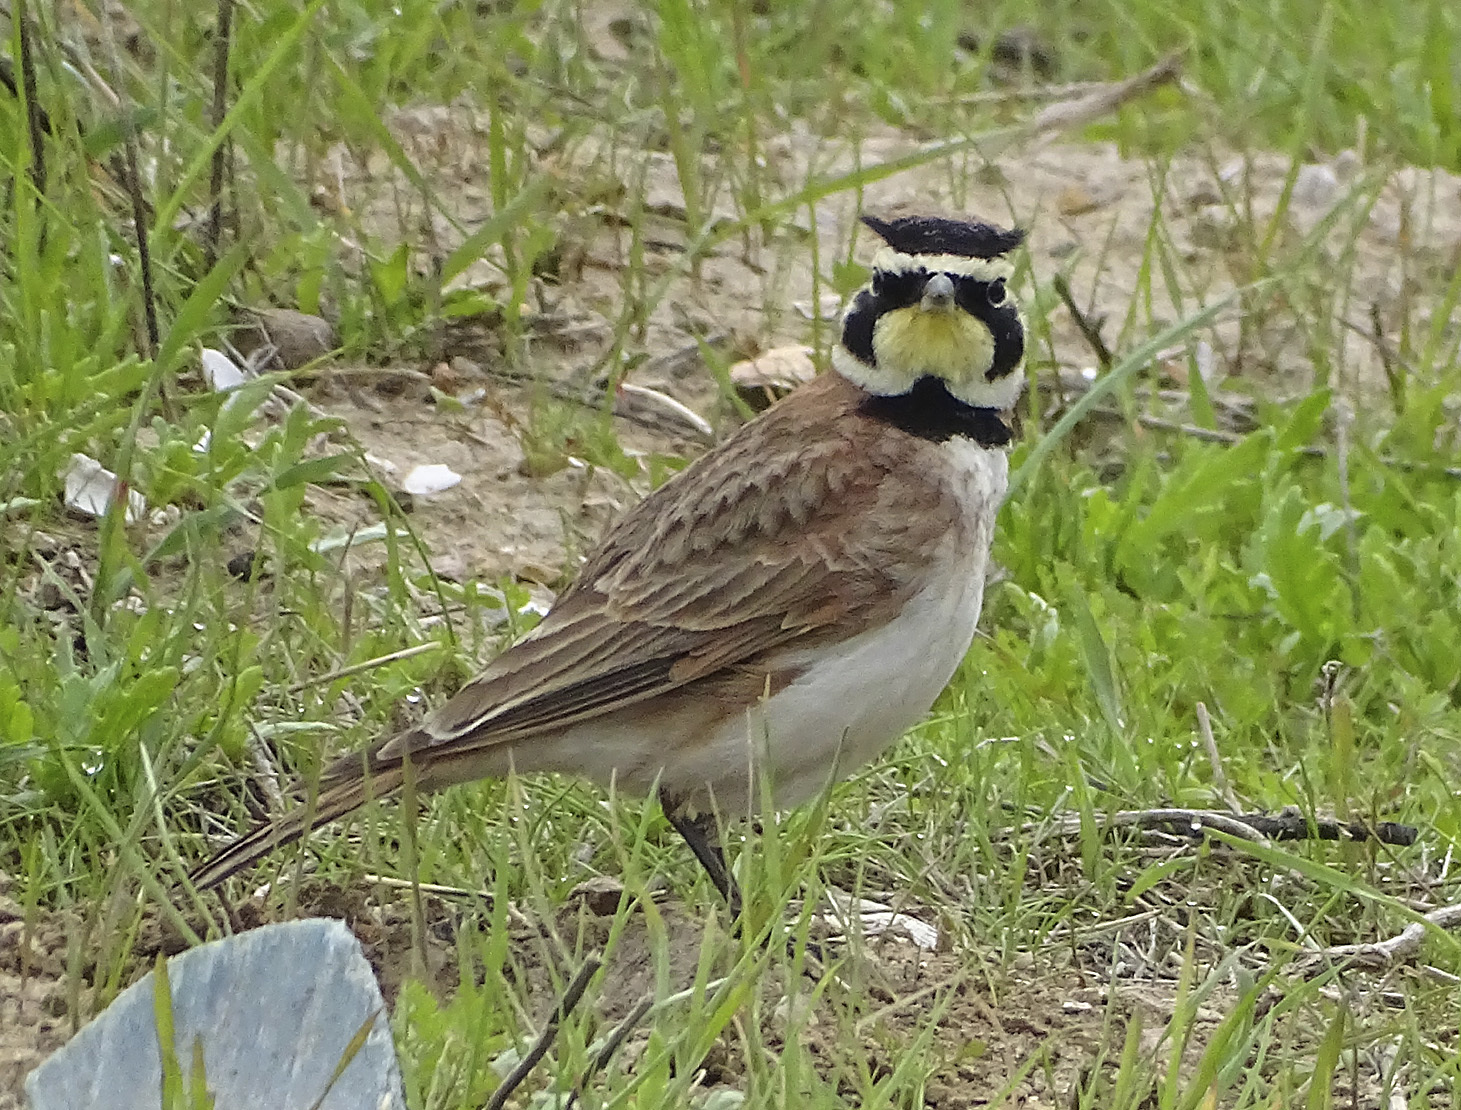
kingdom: Animalia
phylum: Chordata
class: Aves
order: Passeriformes
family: Alaudidae
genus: Eremophila
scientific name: Eremophila alpestris
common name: Horned lark
